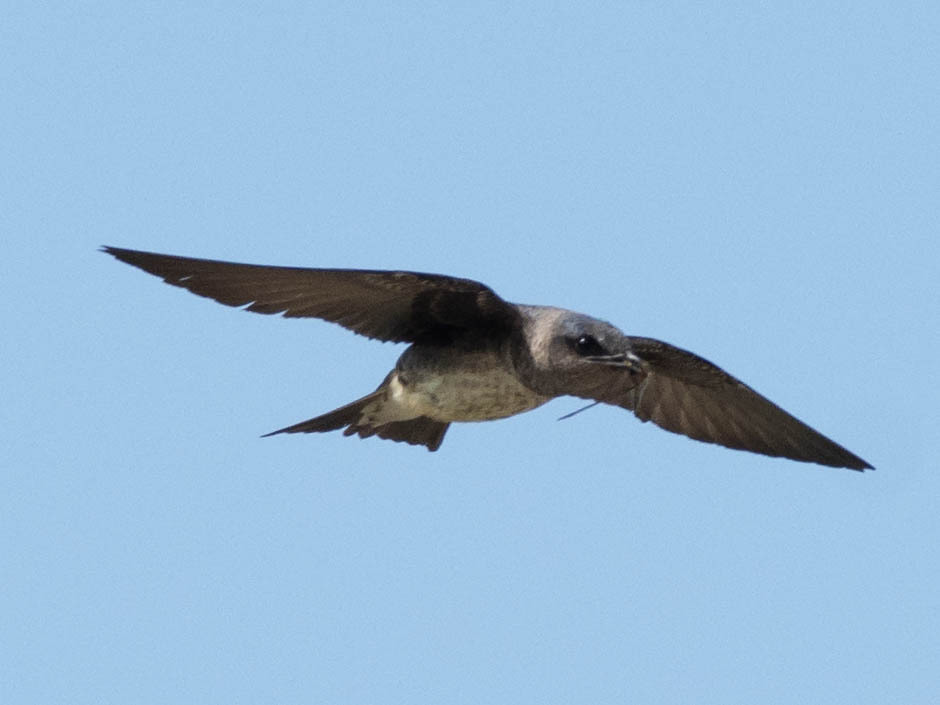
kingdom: Animalia
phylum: Chordata
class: Aves
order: Passeriformes
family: Hirundinidae
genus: Progne
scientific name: Progne subis
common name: Purple martin
